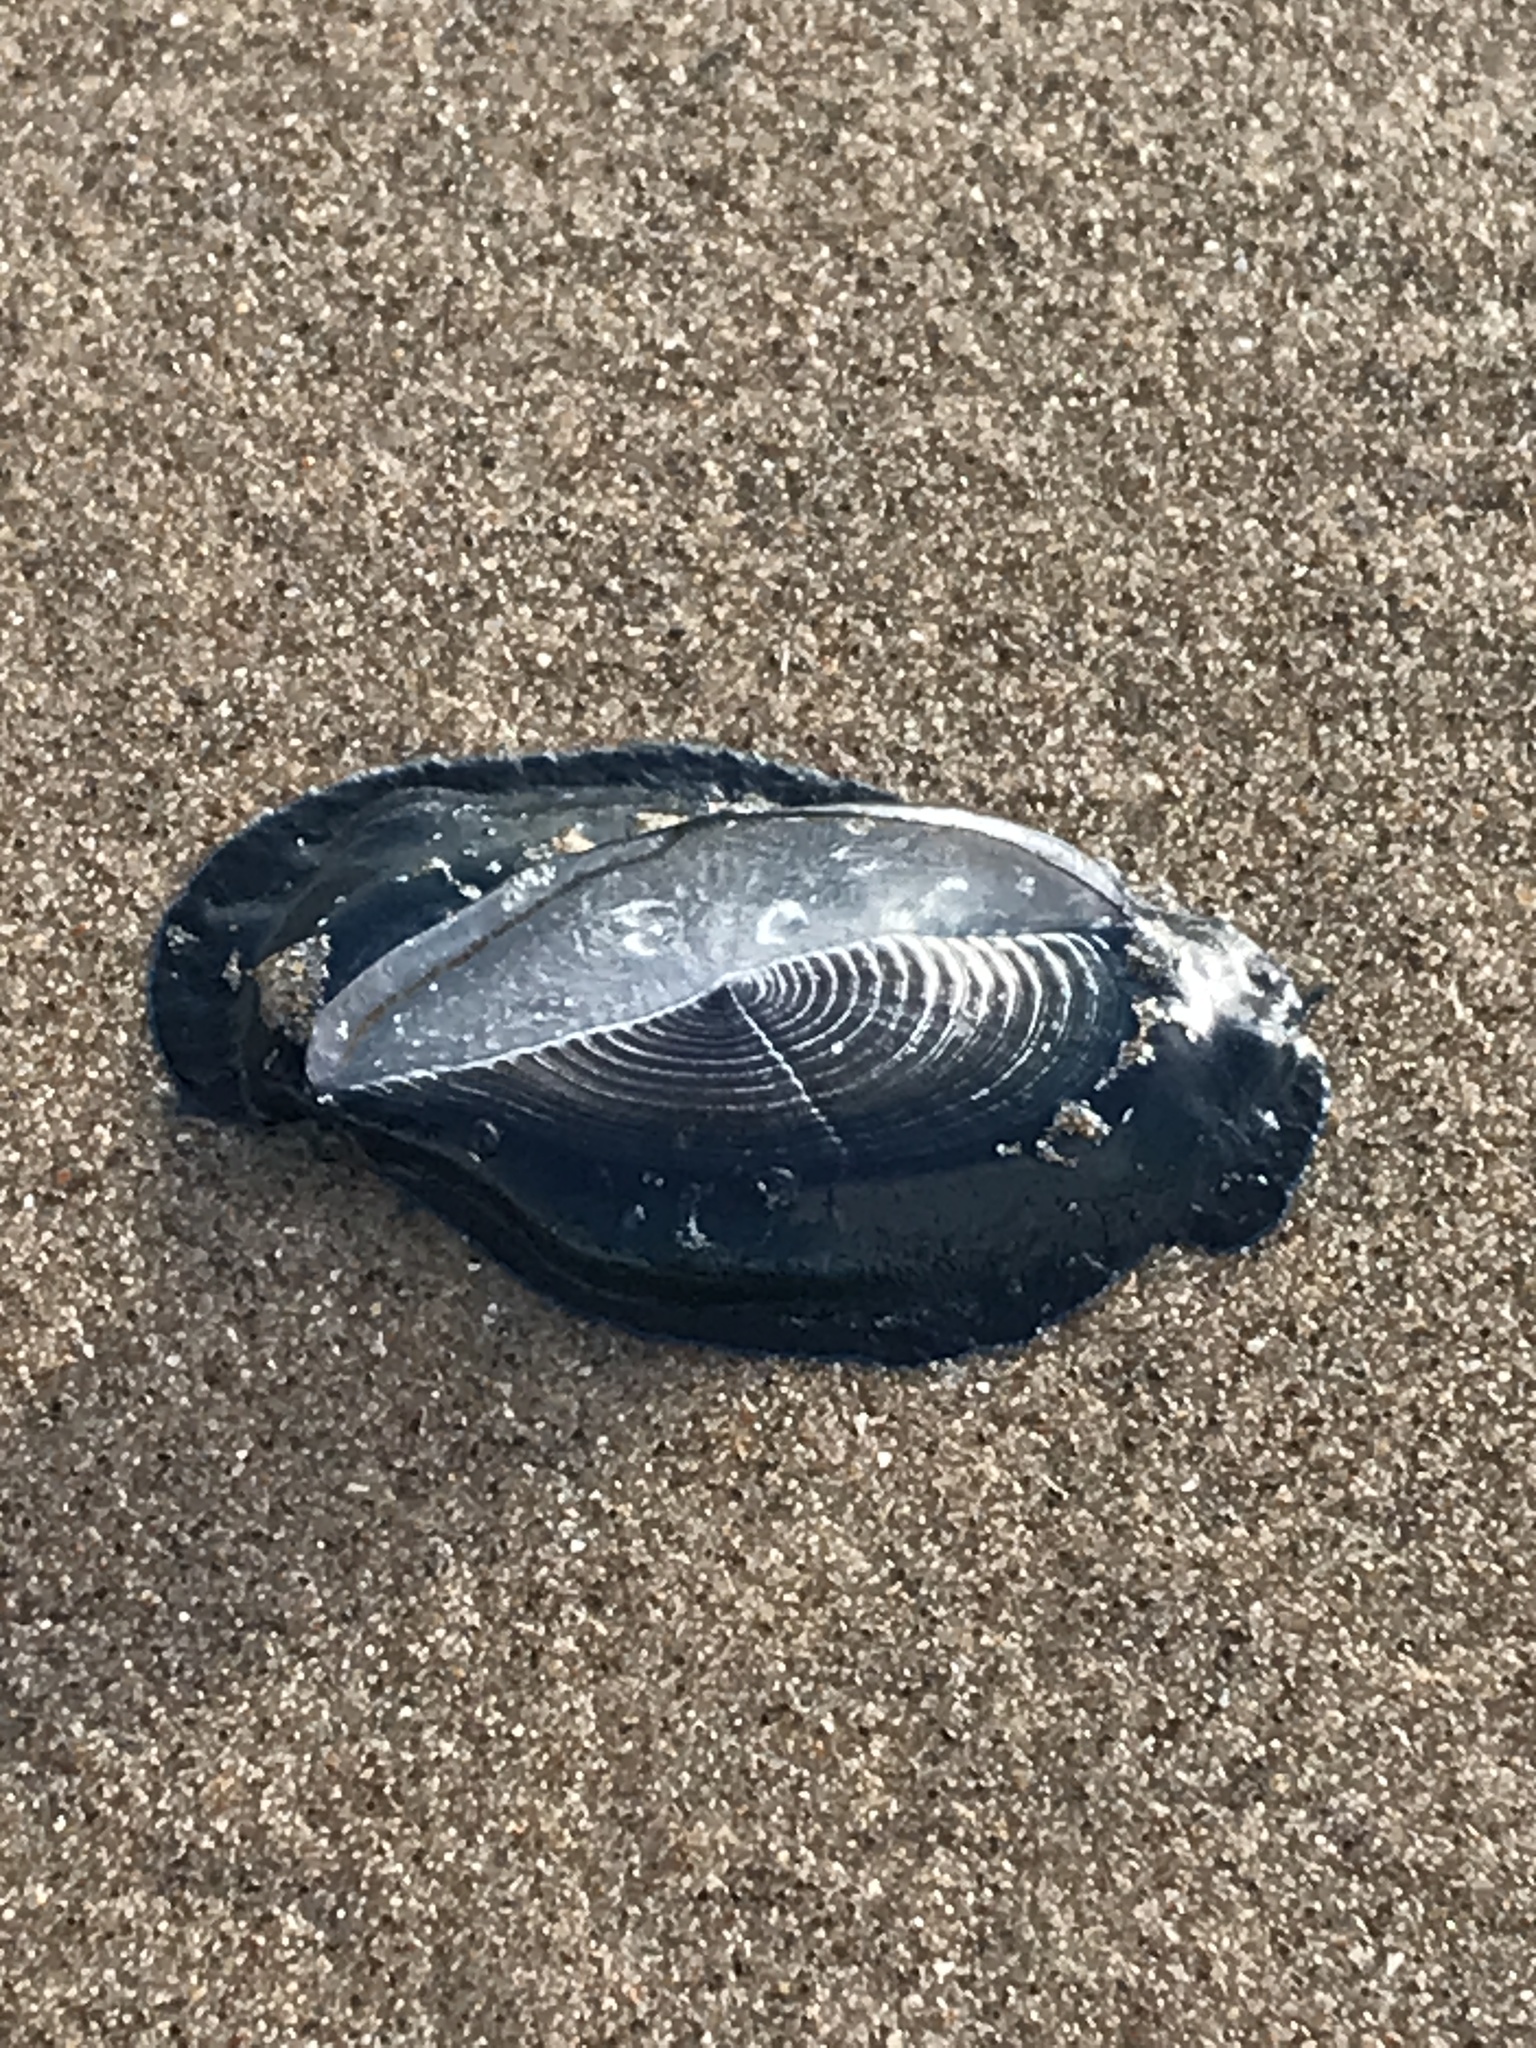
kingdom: Animalia
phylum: Cnidaria
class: Hydrozoa
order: Anthoathecata
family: Porpitidae
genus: Velella
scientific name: Velella velella
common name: By-the-wind-sailor
